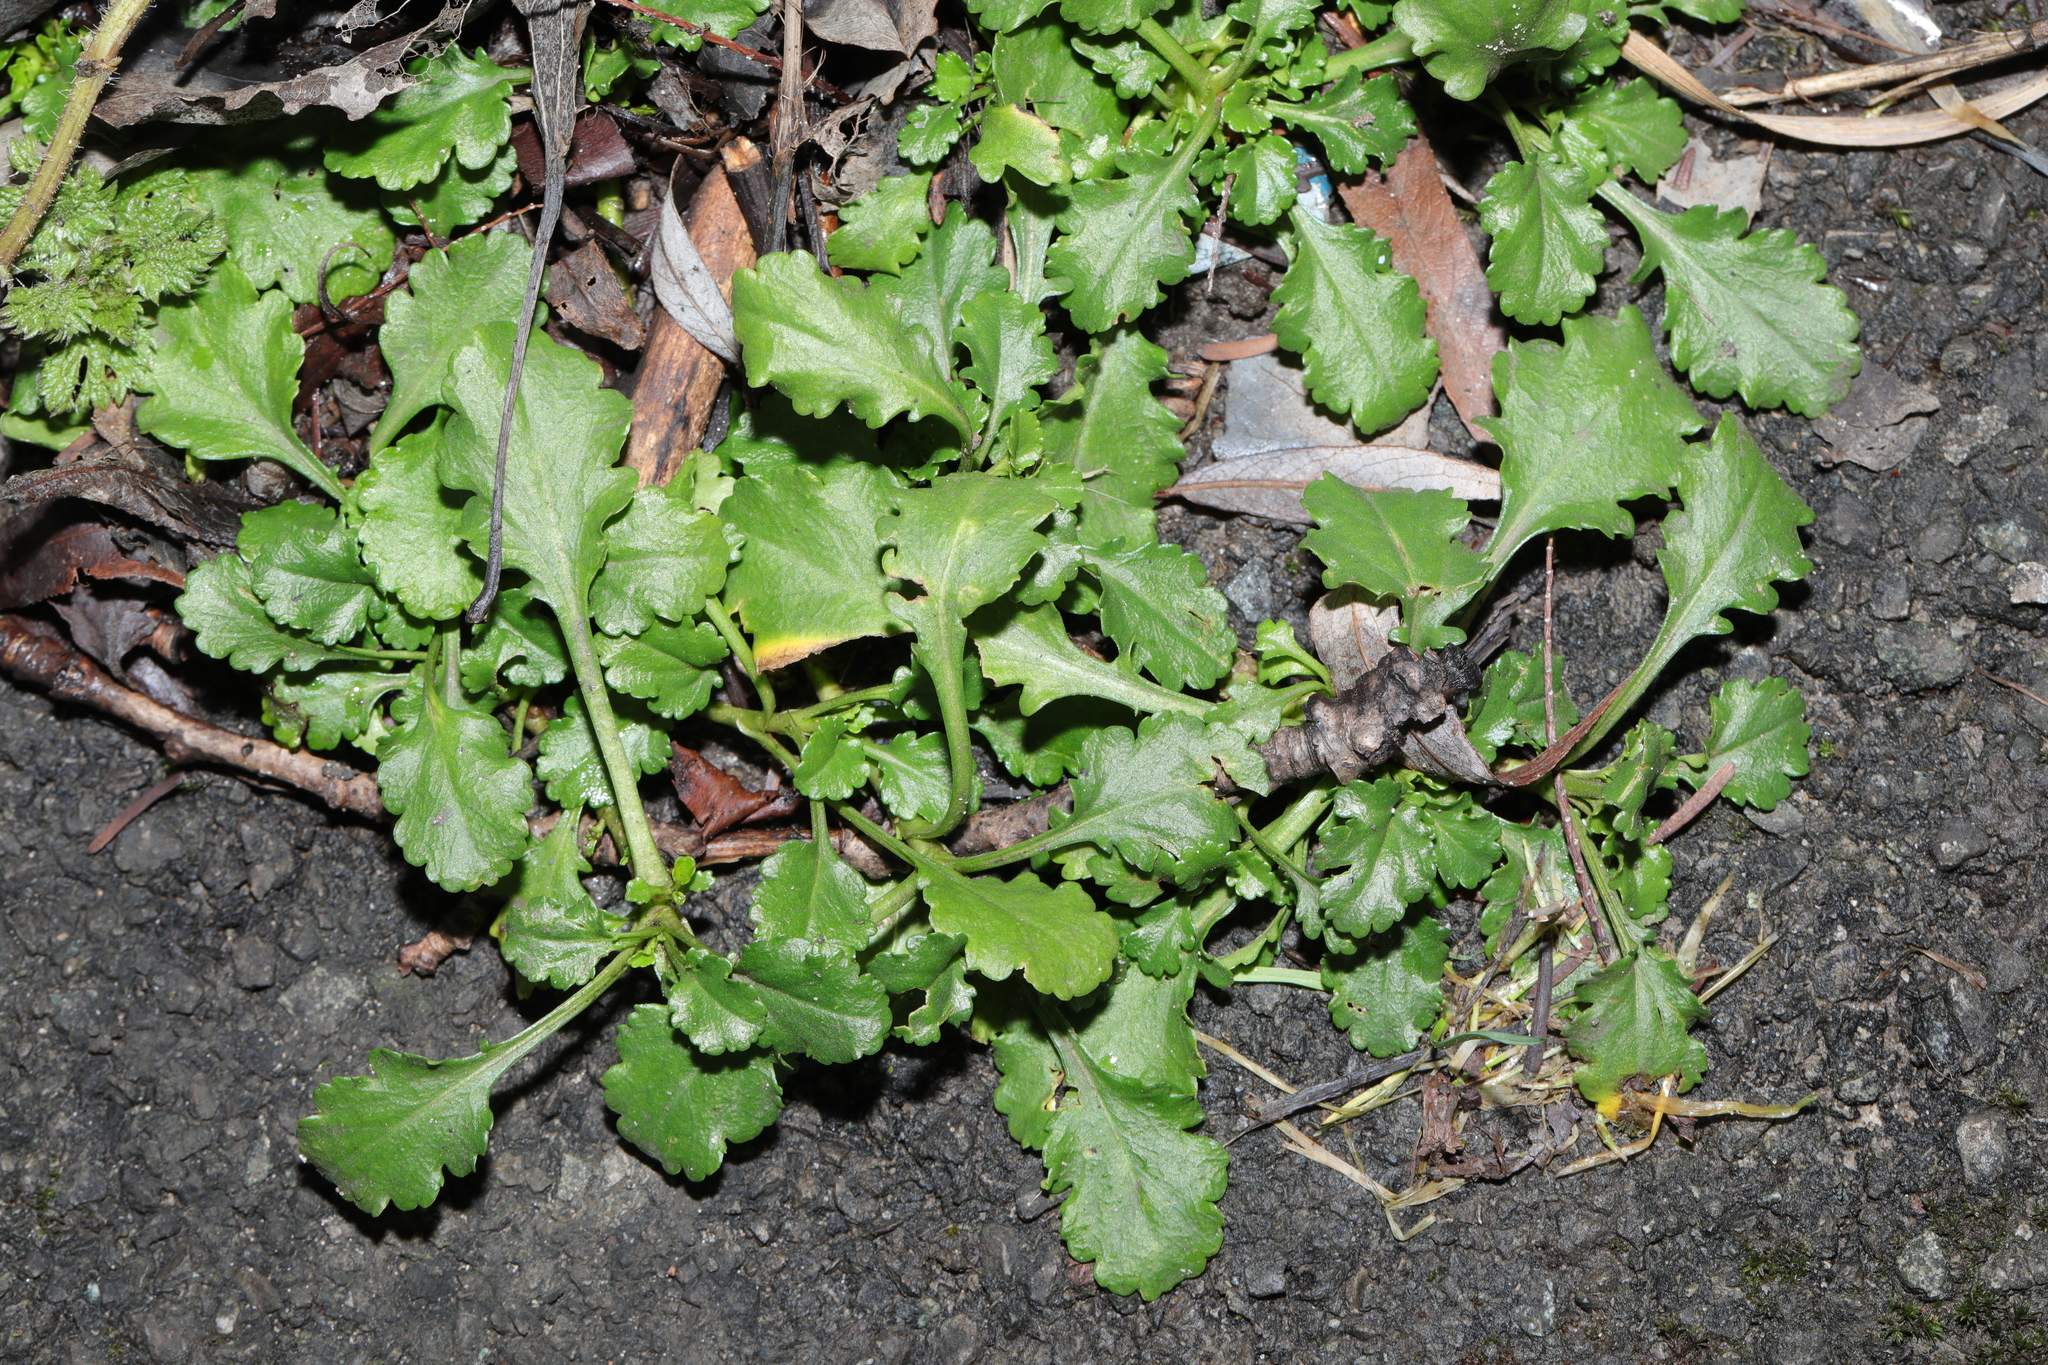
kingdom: Plantae
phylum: Tracheophyta
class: Magnoliopsida
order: Asterales
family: Asteraceae
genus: Leucanthemum
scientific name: Leucanthemum vulgare
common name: Oxeye daisy
